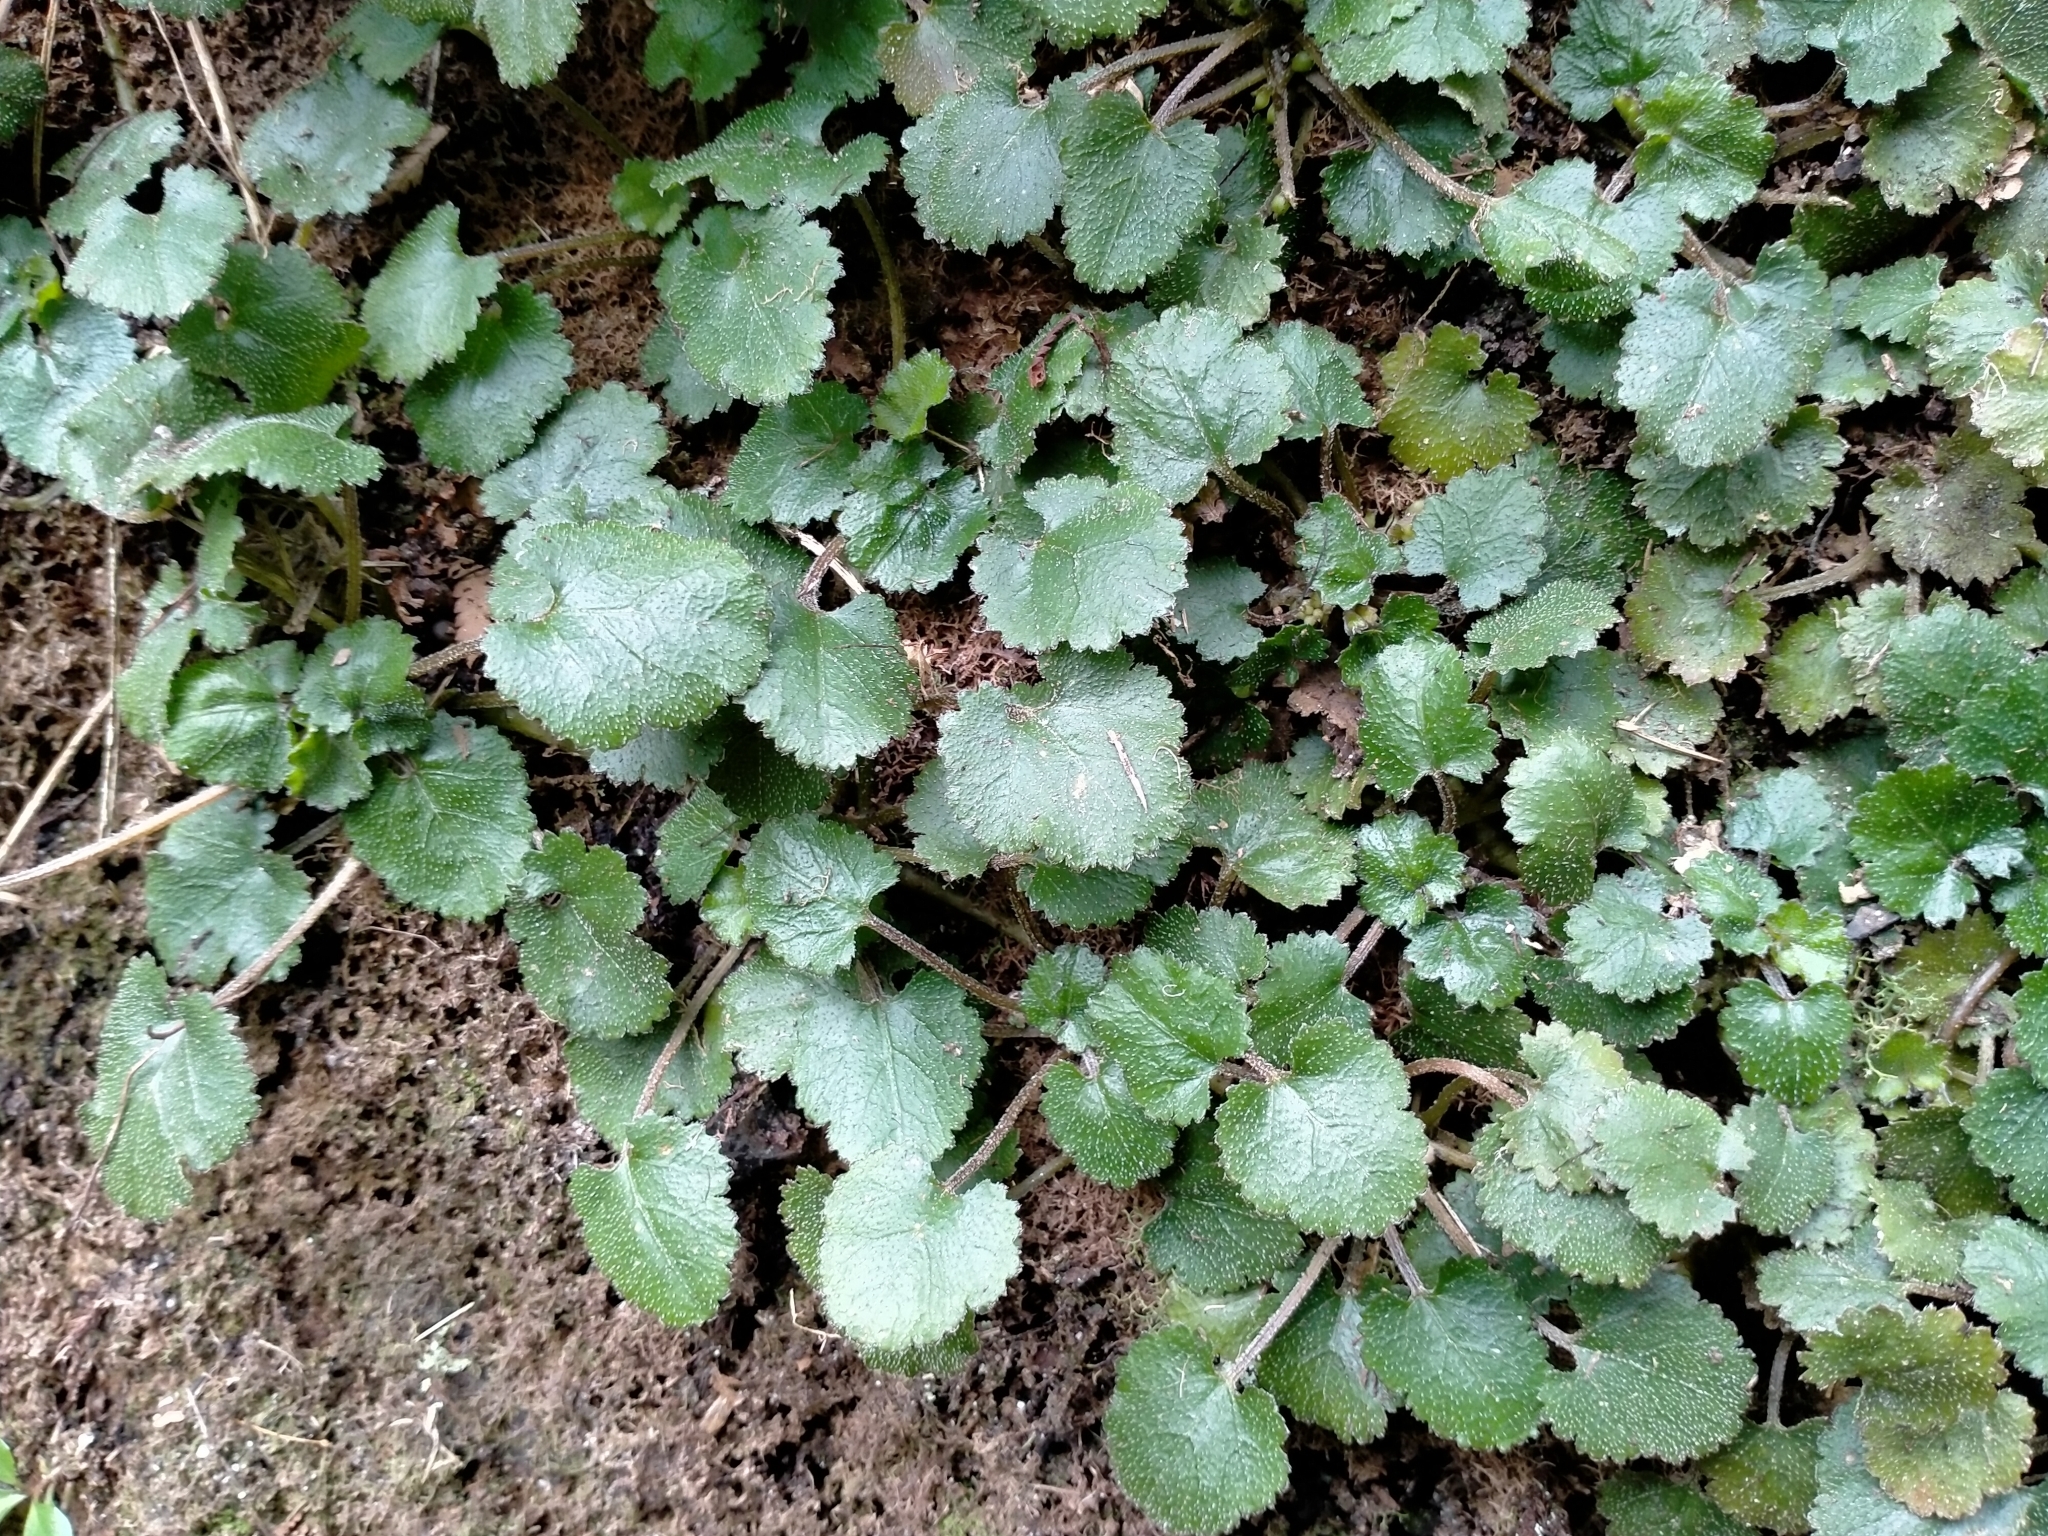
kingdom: Plantae
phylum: Tracheophyta
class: Magnoliopsida
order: Gunnerales
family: Gunneraceae
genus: Gunnera
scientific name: Gunnera monoica
